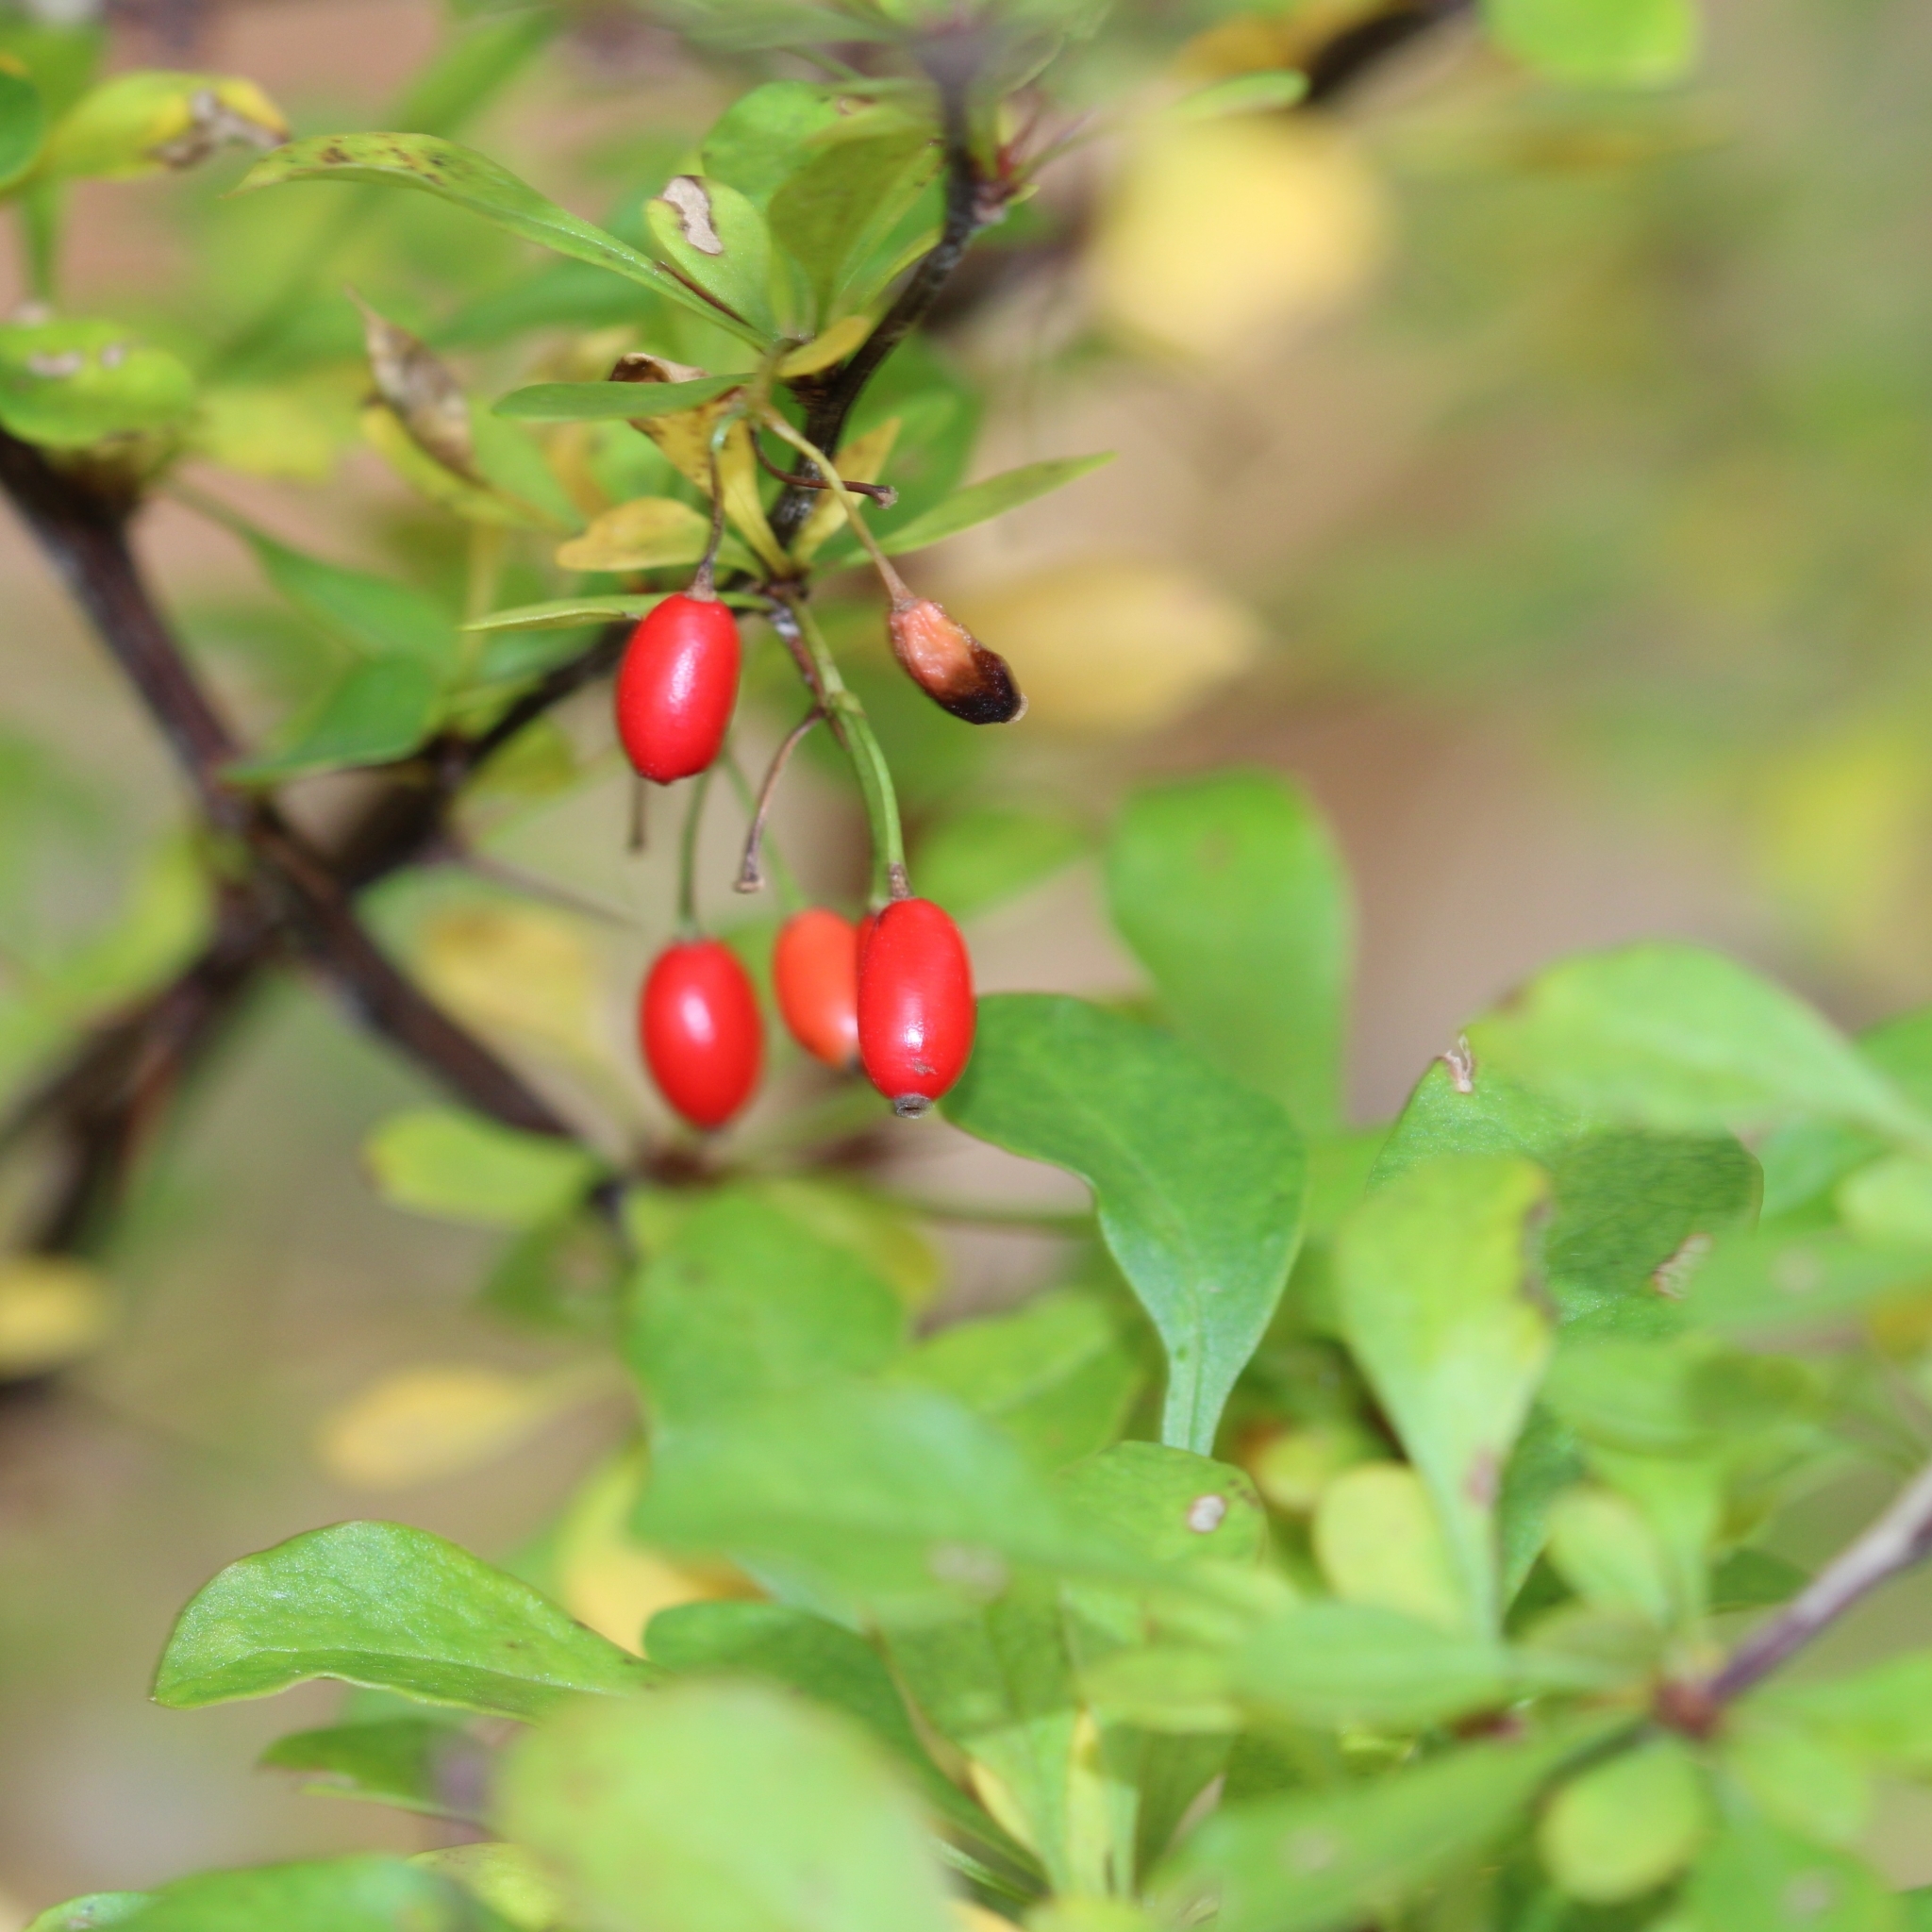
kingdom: Plantae
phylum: Tracheophyta
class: Magnoliopsida
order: Ranunculales
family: Berberidaceae
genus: Berberis
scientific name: Berberis thunbergii
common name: Japanese barberry
